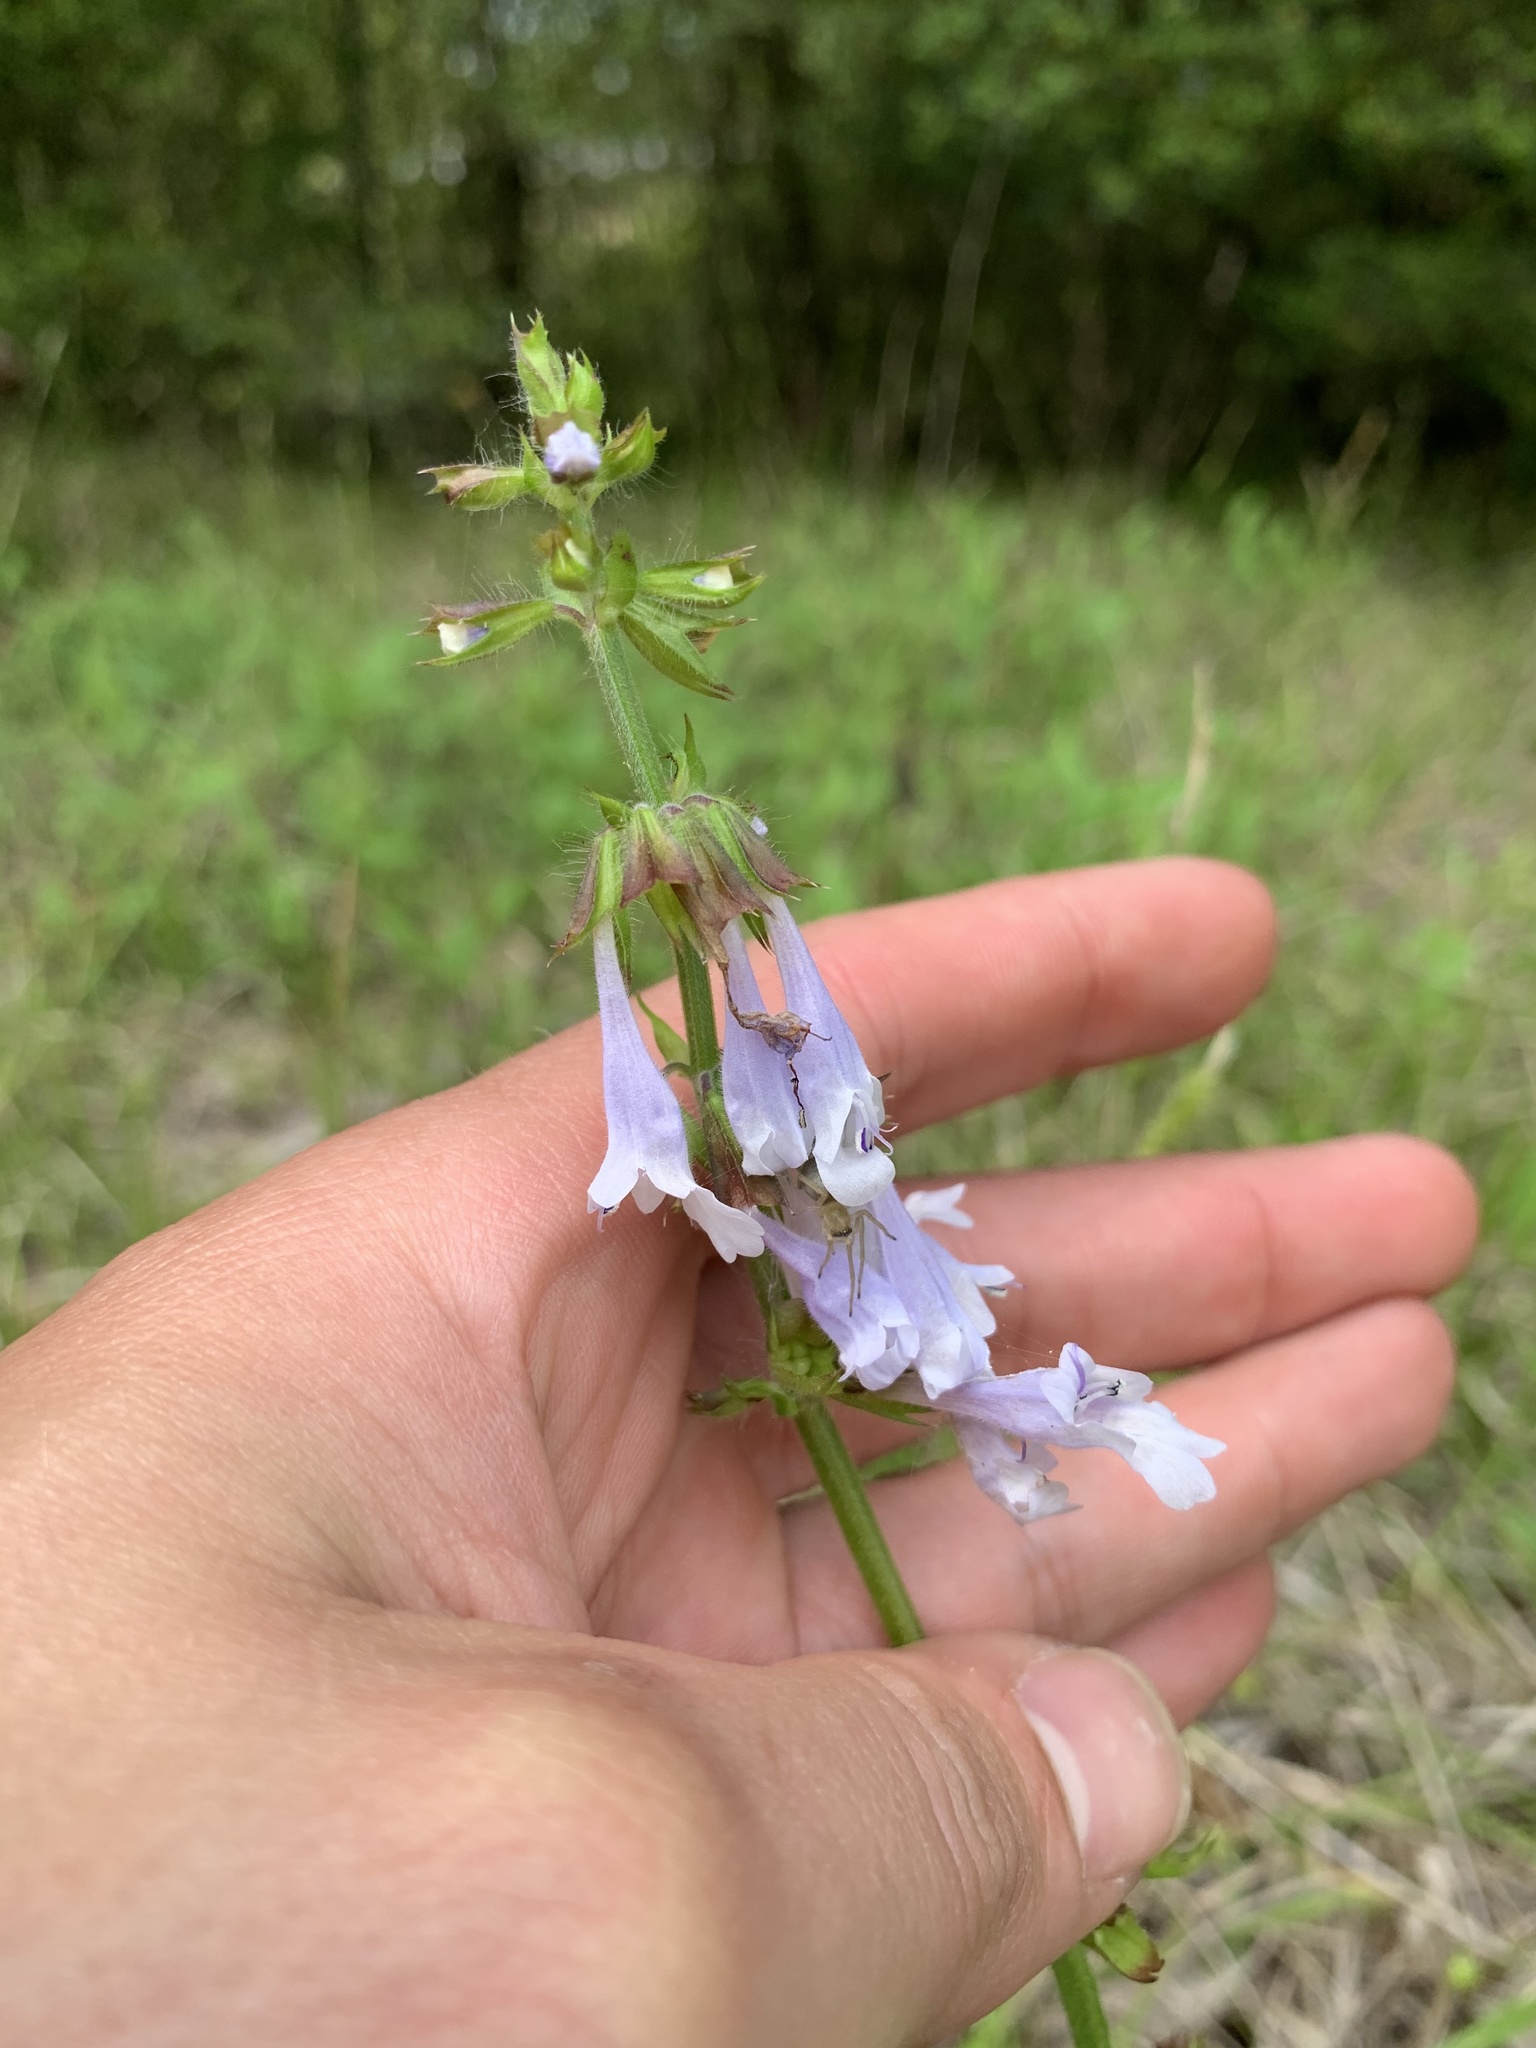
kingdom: Plantae
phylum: Tracheophyta
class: Magnoliopsida
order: Lamiales
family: Lamiaceae
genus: Salvia
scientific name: Salvia lyrata
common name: Cancerweed
